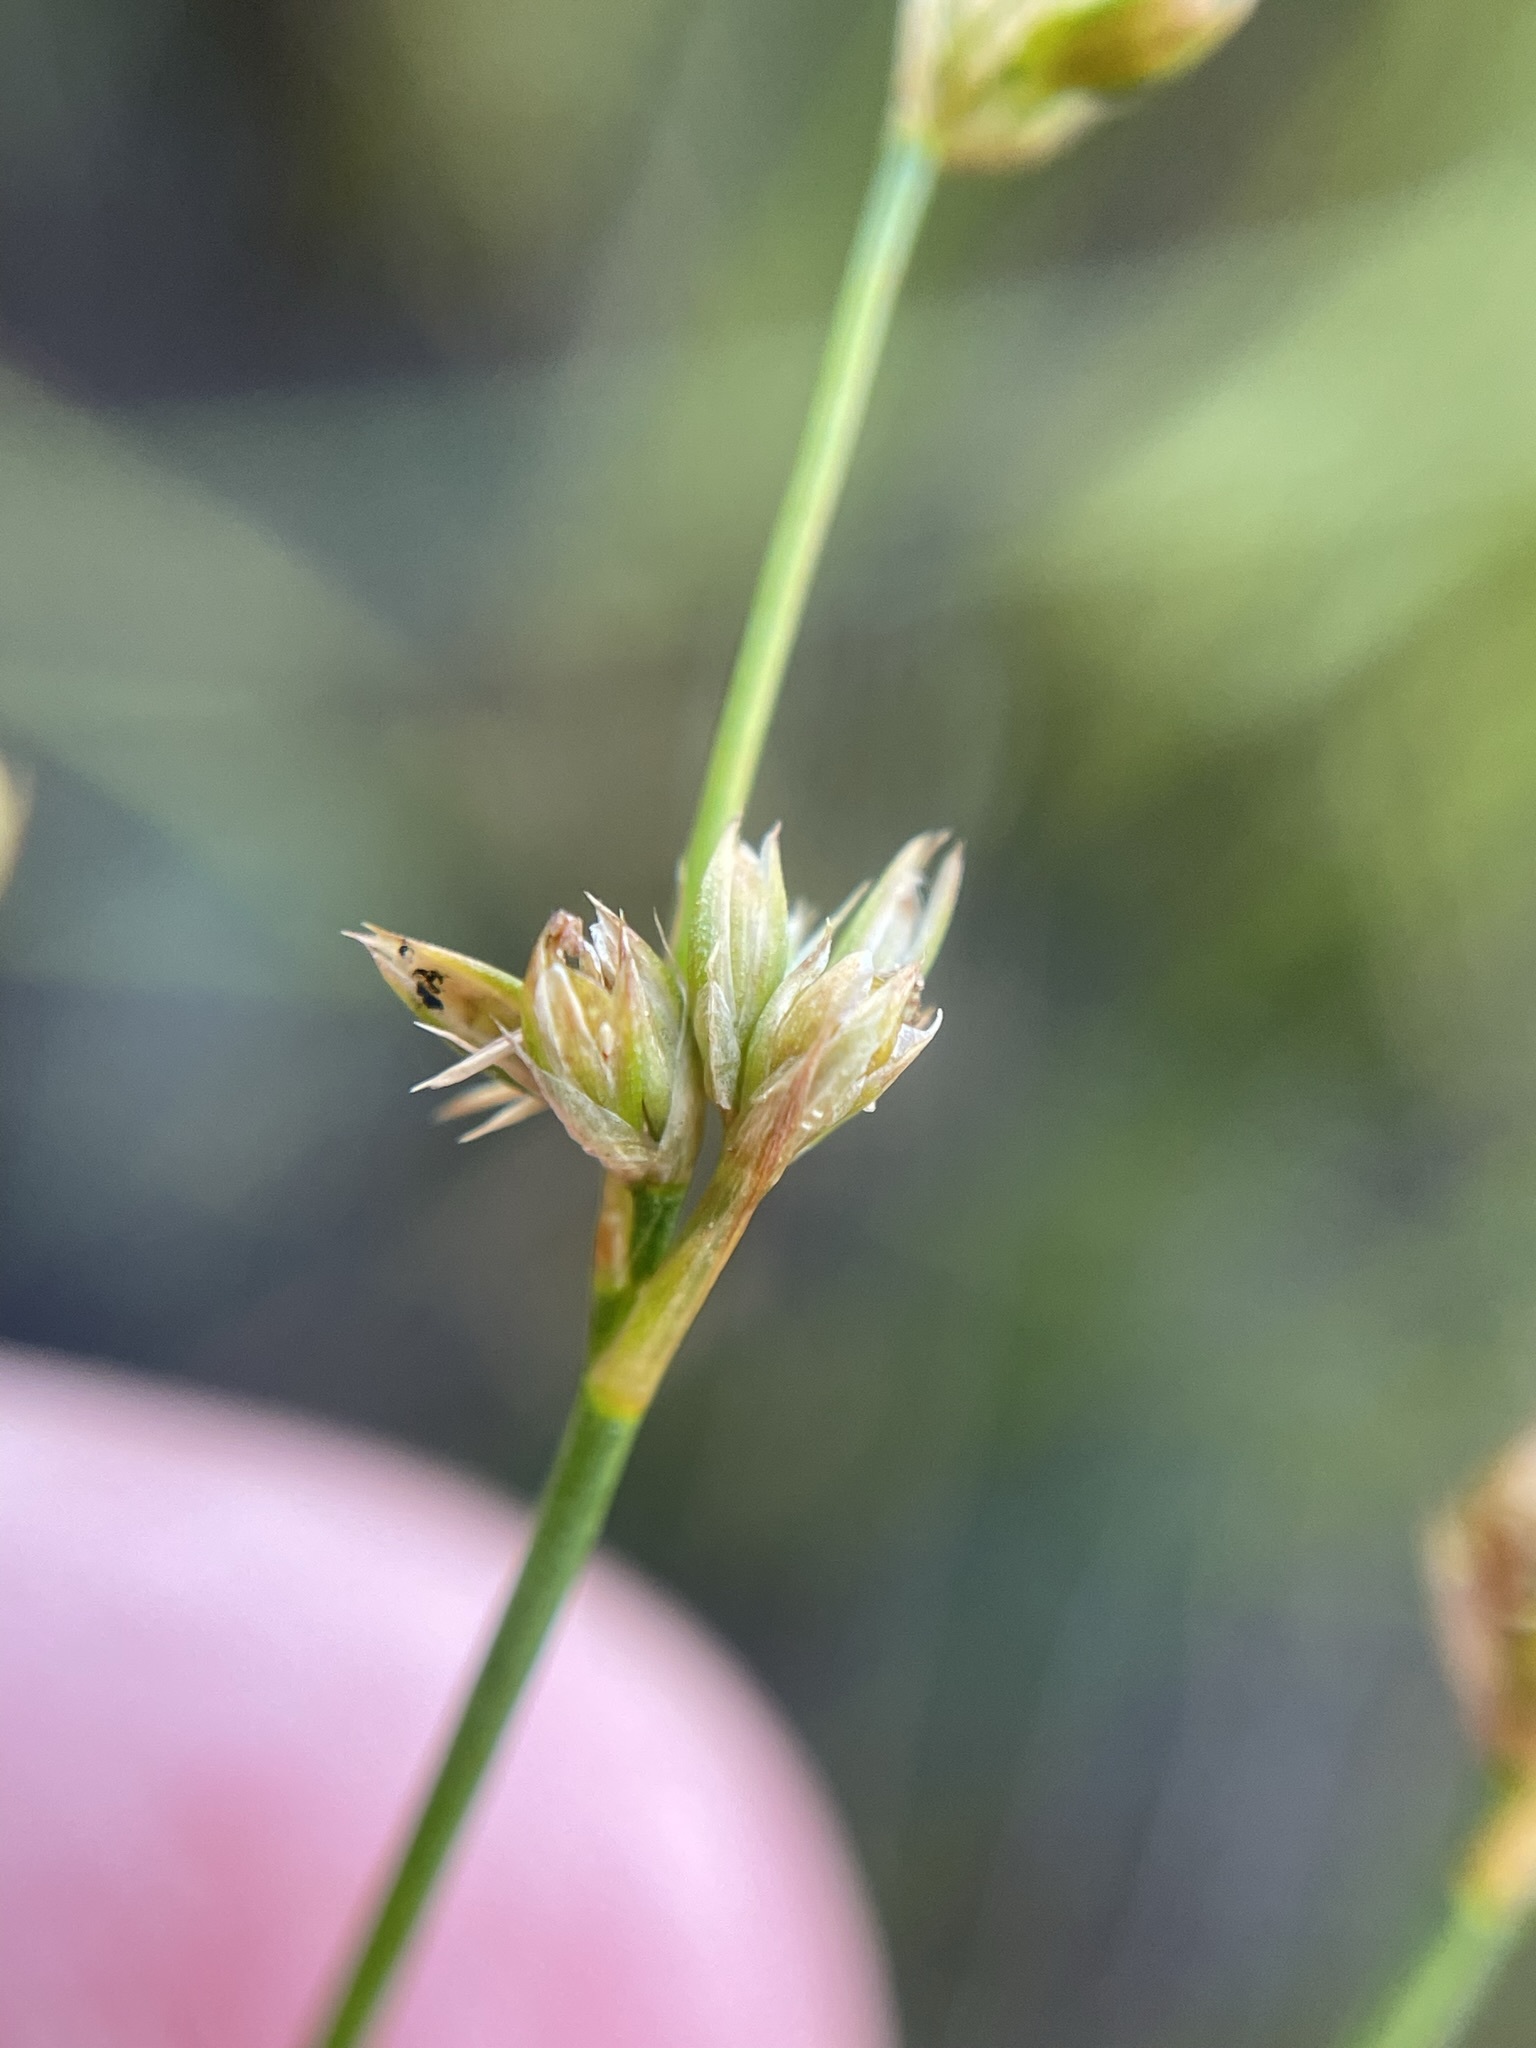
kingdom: Plantae
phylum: Tracheophyta
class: Liliopsida
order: Poales
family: Juncaceae
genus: Juncus
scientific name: Juncus brachycephalus
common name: Short-headed rush
